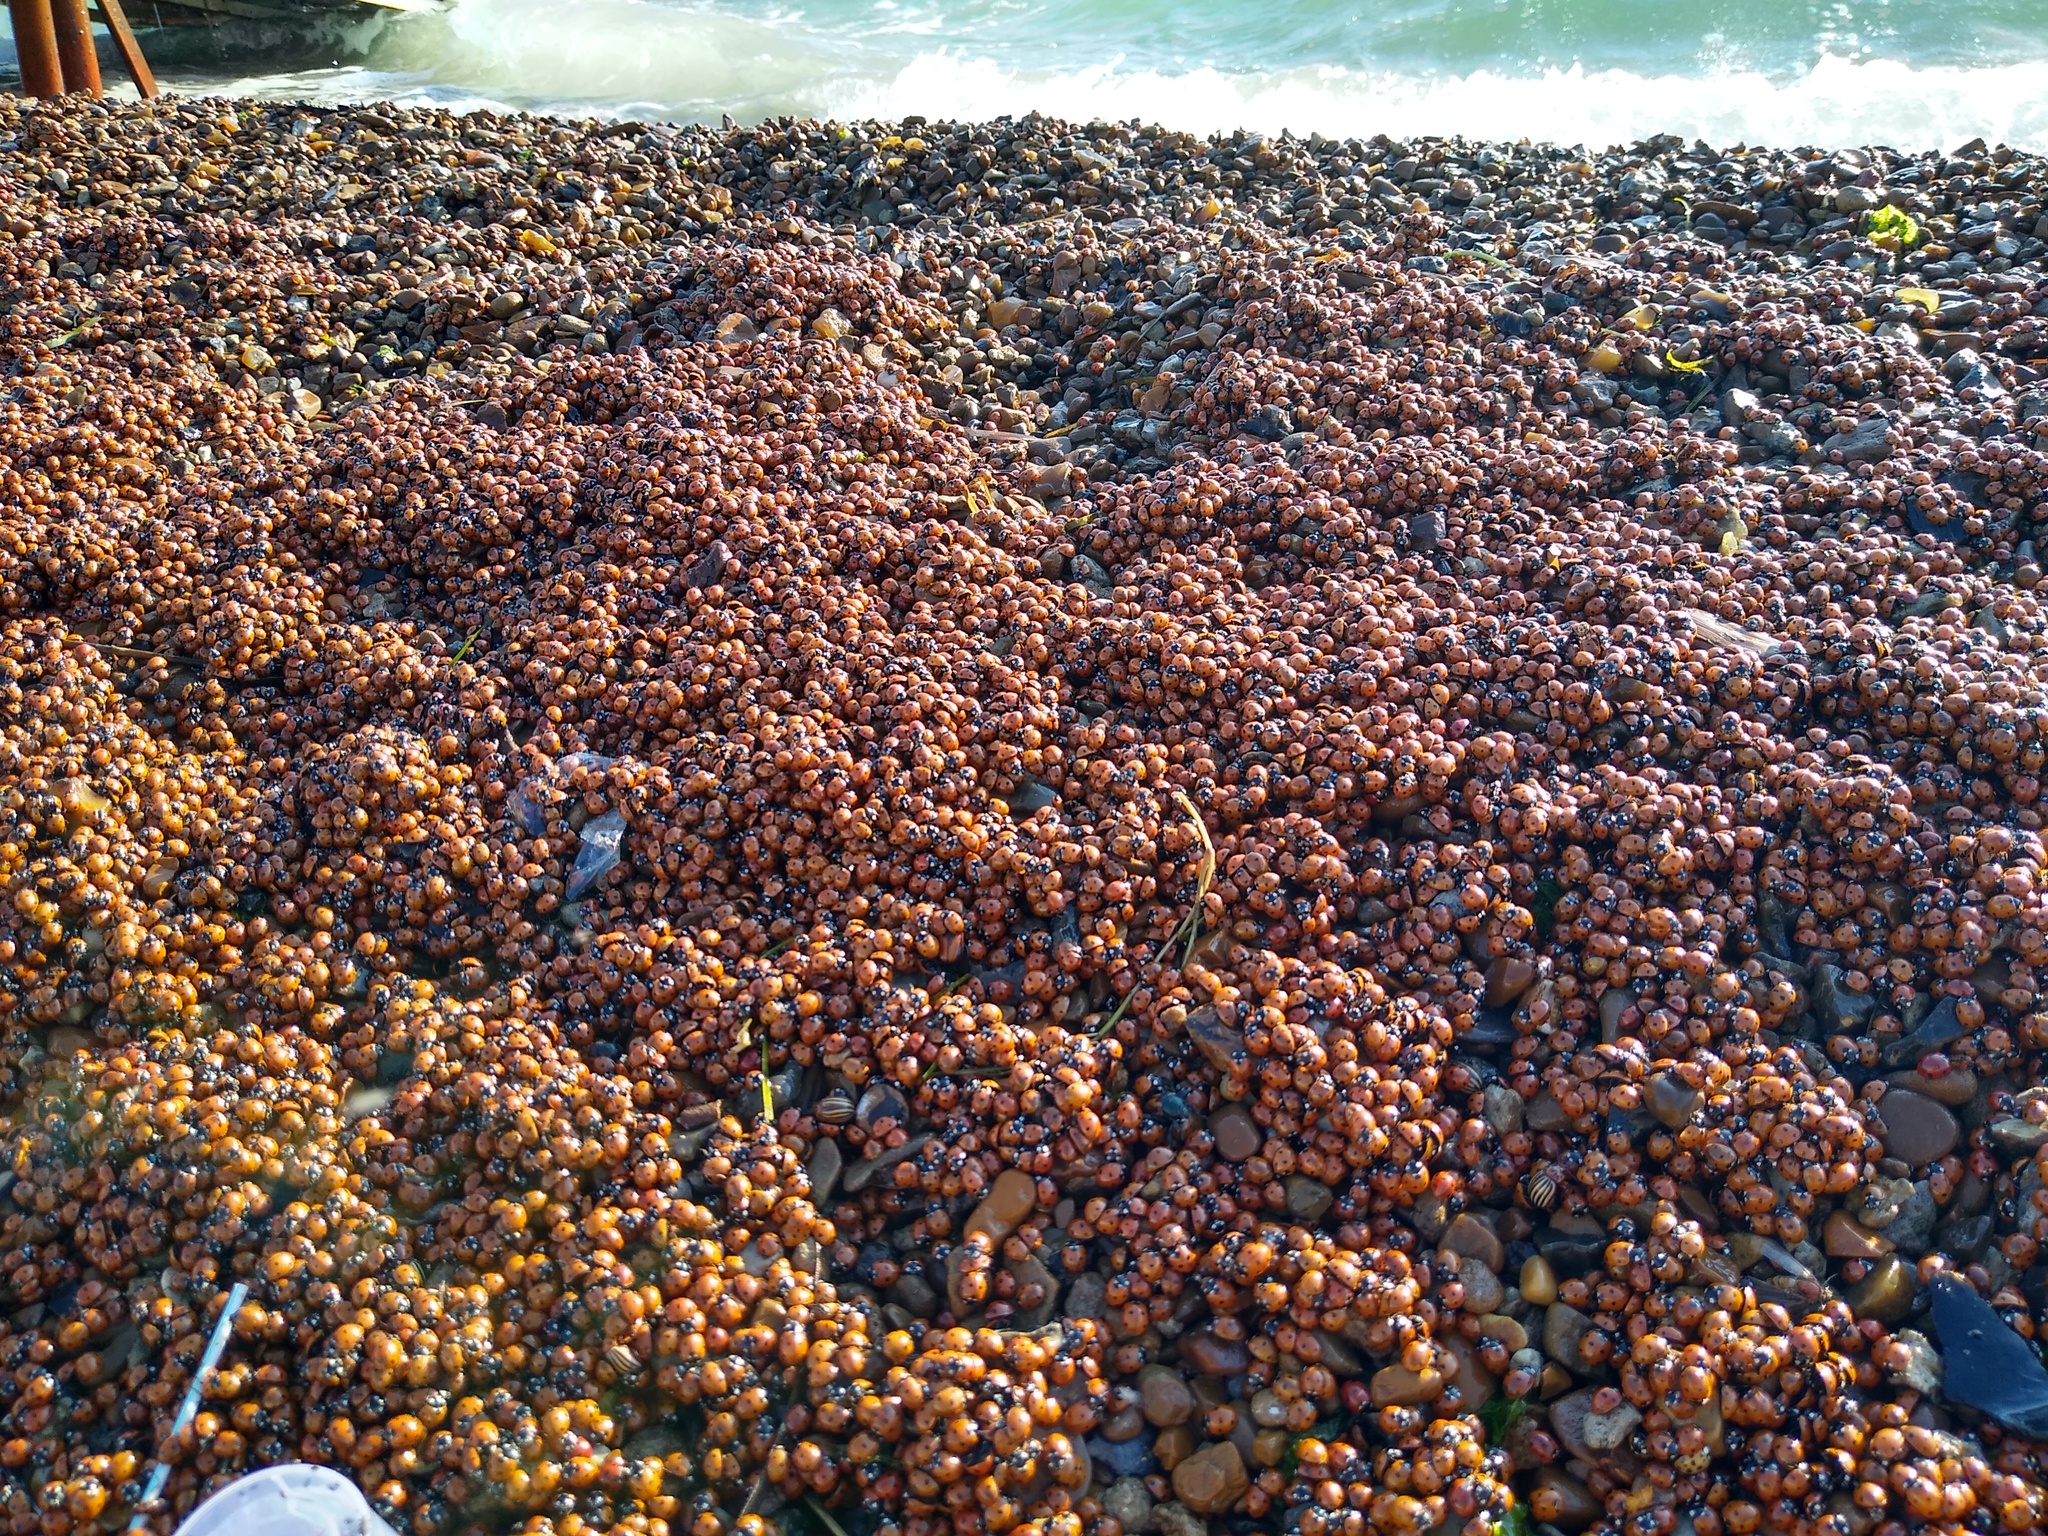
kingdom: Animalia
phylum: Arthropoda
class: Insecta
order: Coleoptera
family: Coccinellidae
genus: Coccinella
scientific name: Coccinella septempunctata
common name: Sevenspotted lady beetle
